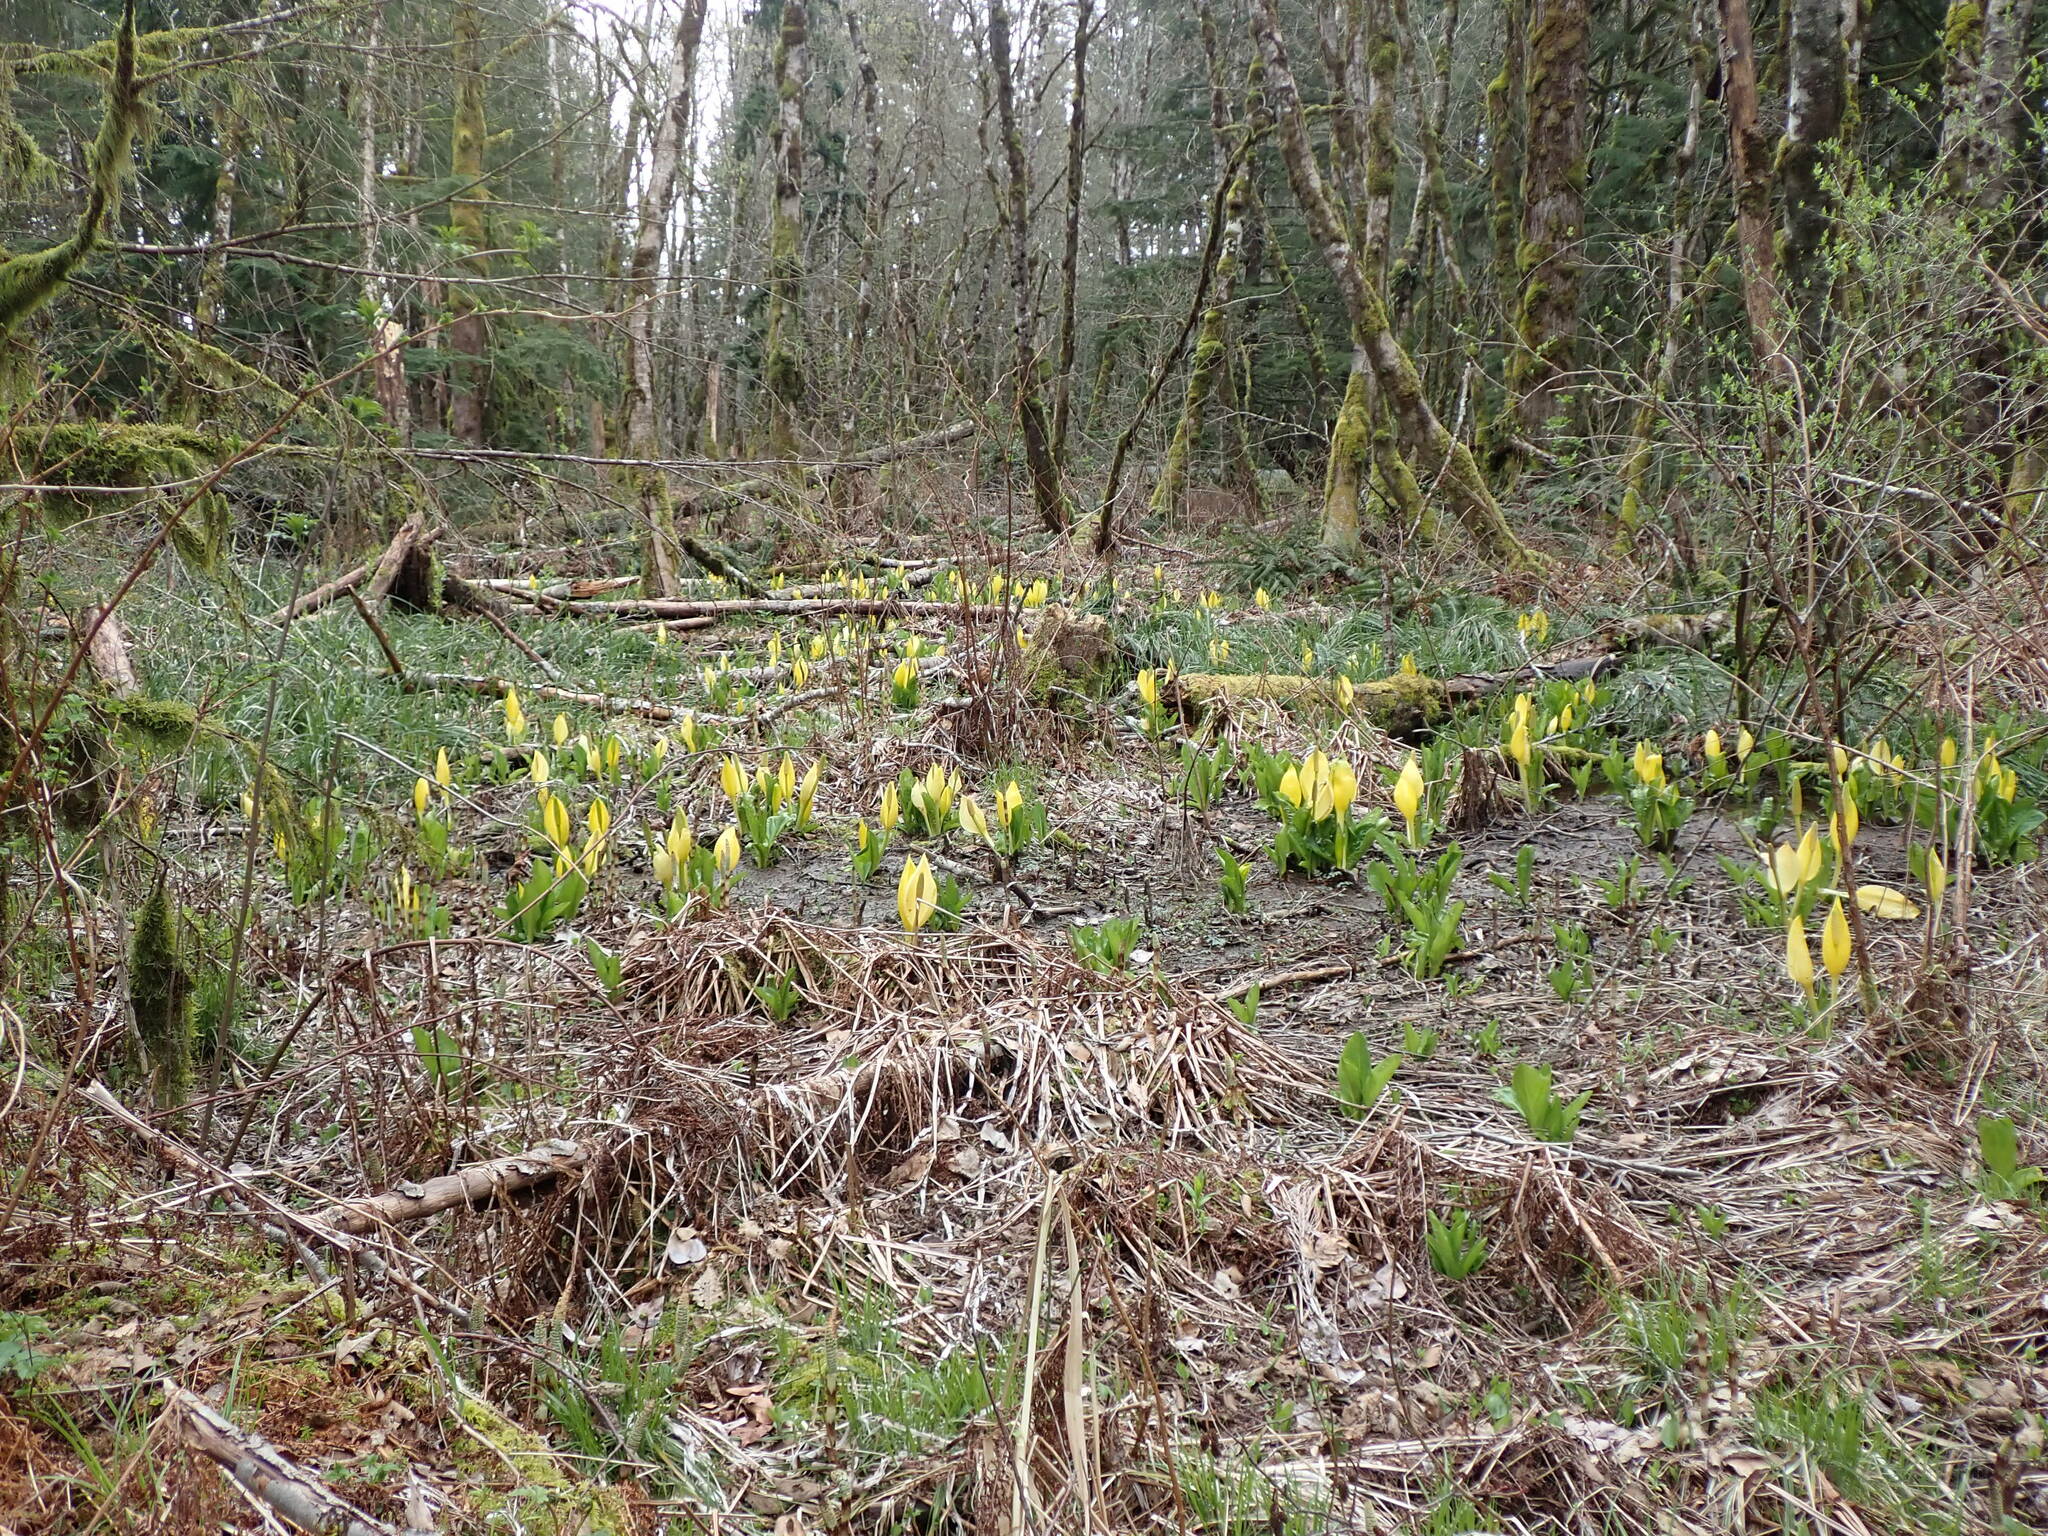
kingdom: Plantae
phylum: Tracheophyta
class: Liliopsida
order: Alismatales
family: Araceae
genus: Lysichiton
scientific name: Lysichiton americanus
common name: American skunk cabbage
